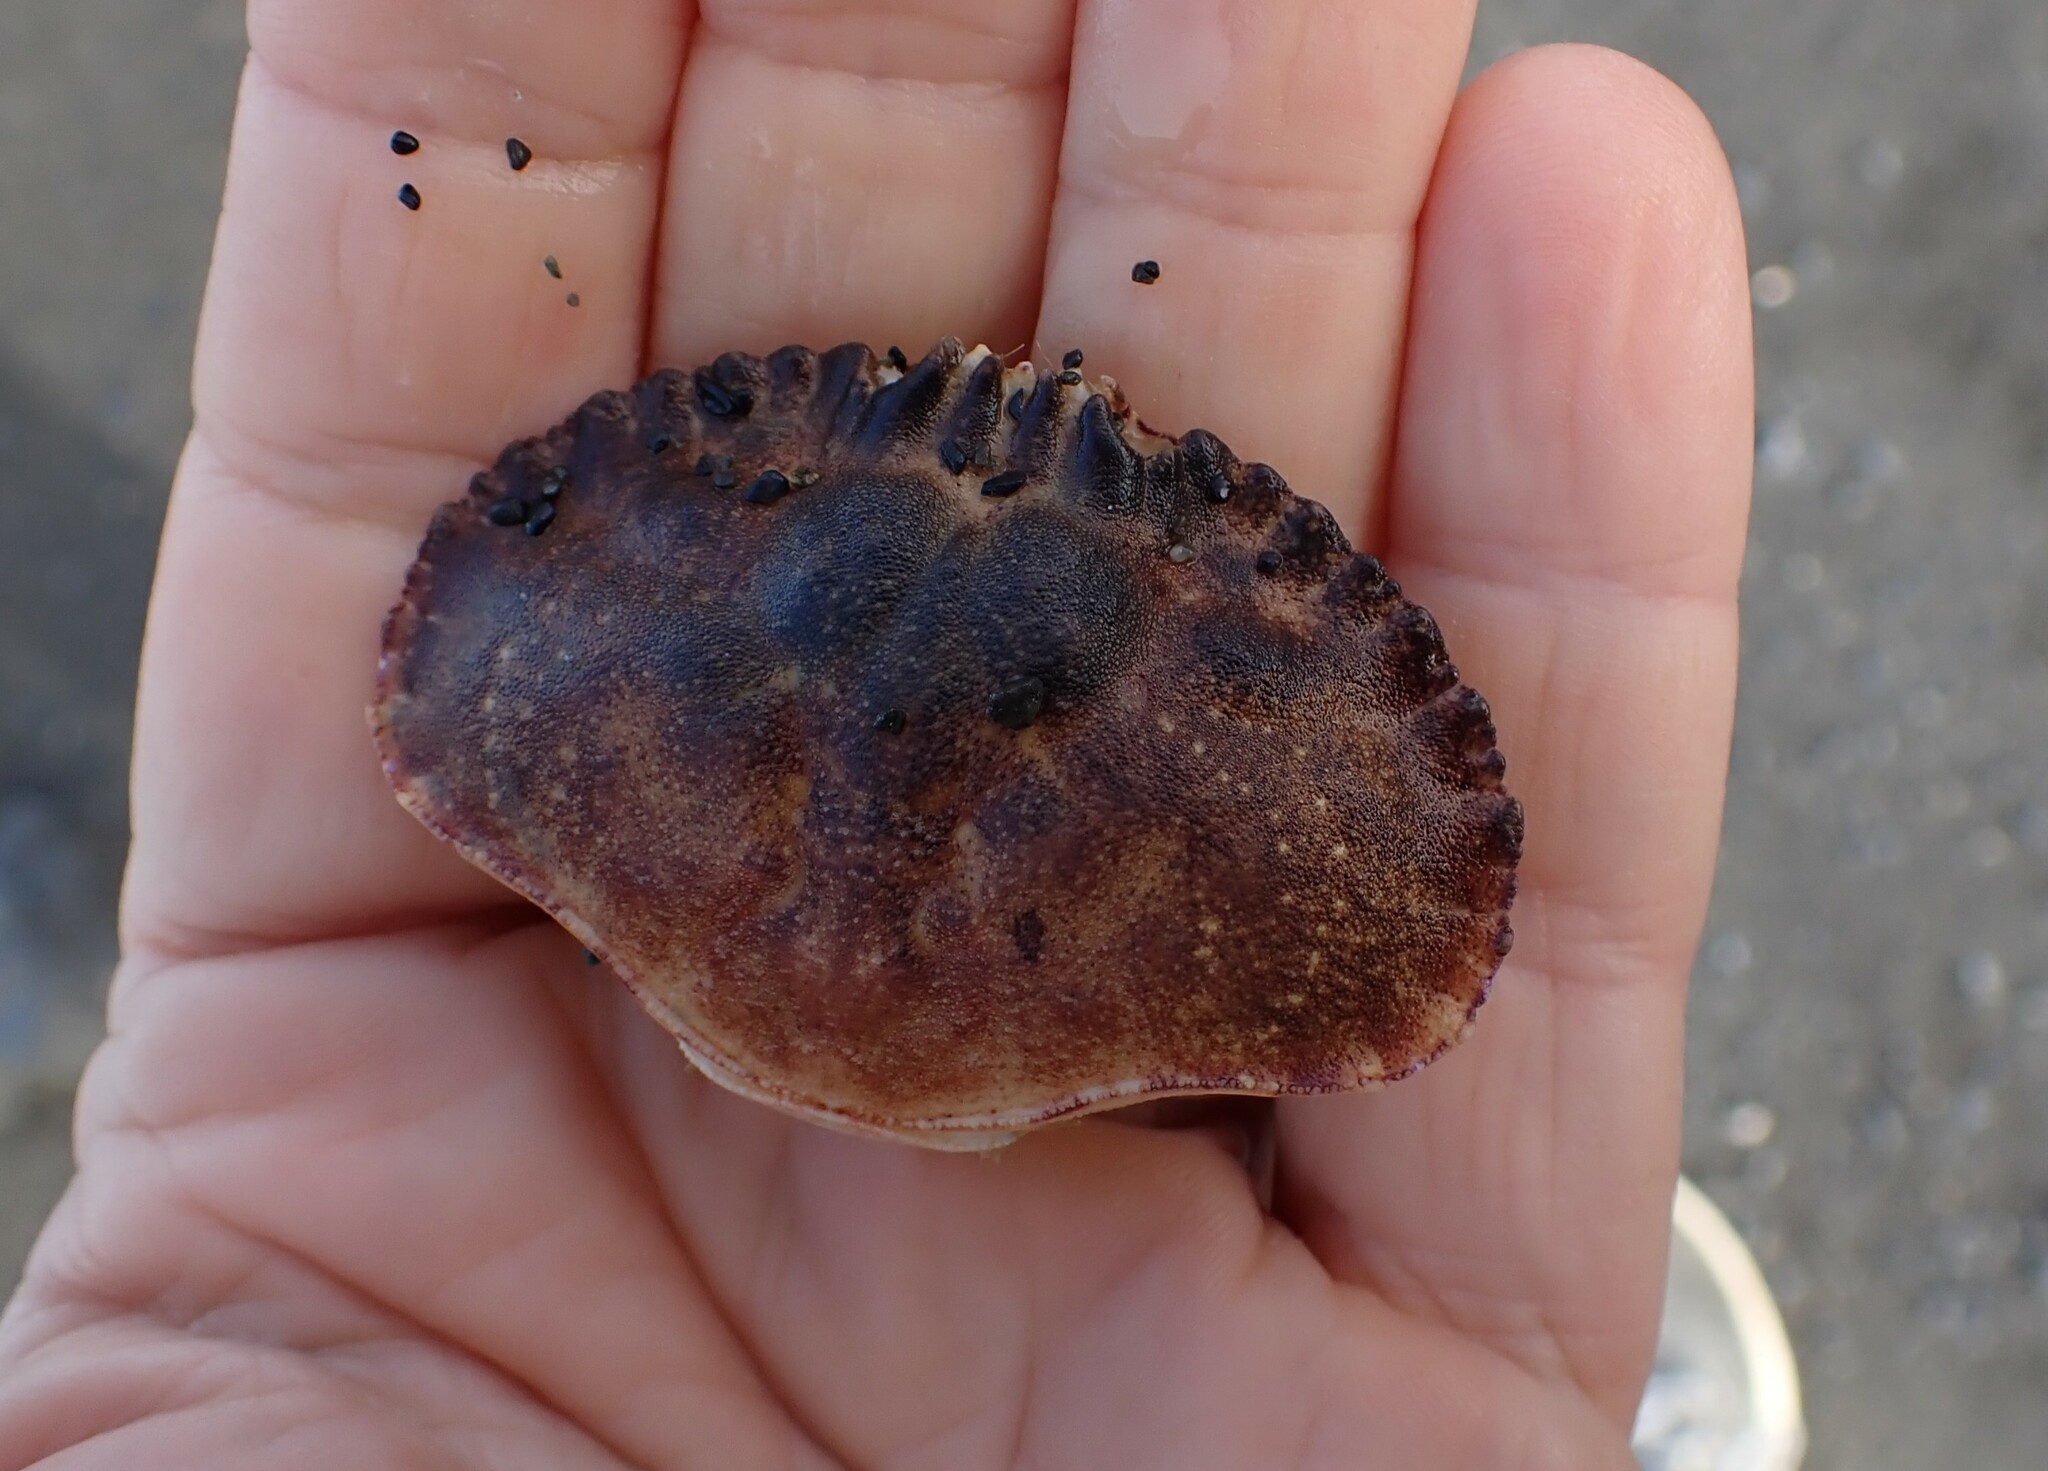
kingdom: Animalia
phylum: Arthropoda
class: Malacostraca
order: Decapoda
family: Cancridae
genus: Metacarcinus
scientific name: Metacarcinus novaezelandiae
